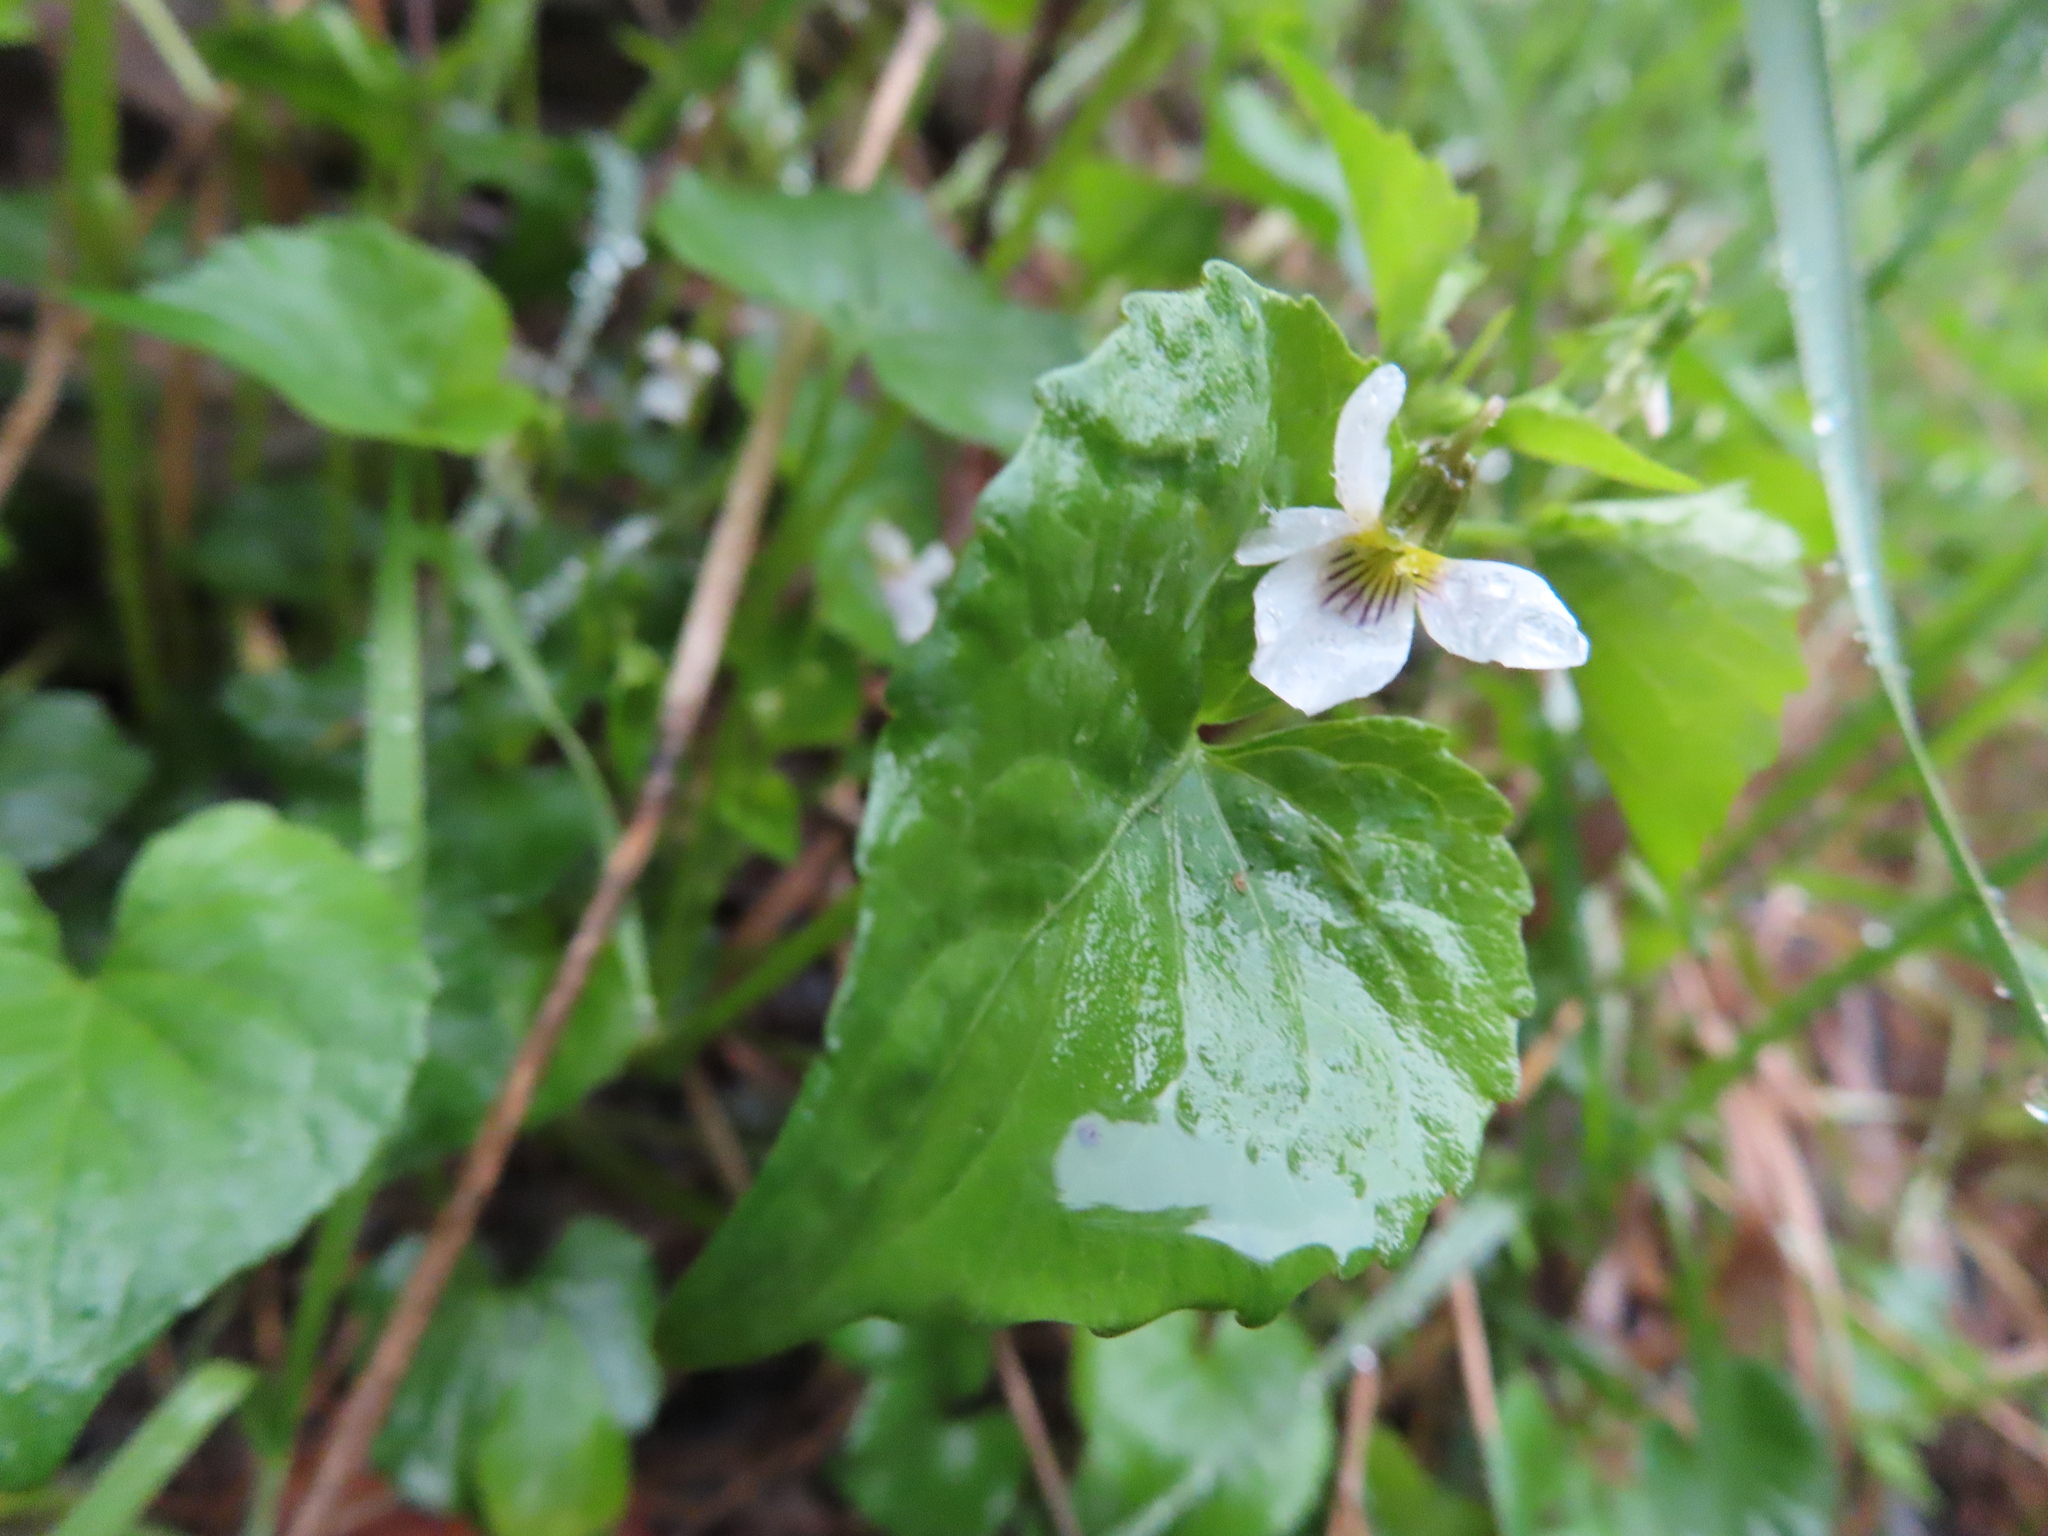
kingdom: Plantae
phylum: Tracheophyta
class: Magnoliopsida
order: Malpighiales
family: Violaceae
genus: Viola
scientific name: Viola canadensis
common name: Canada violet
